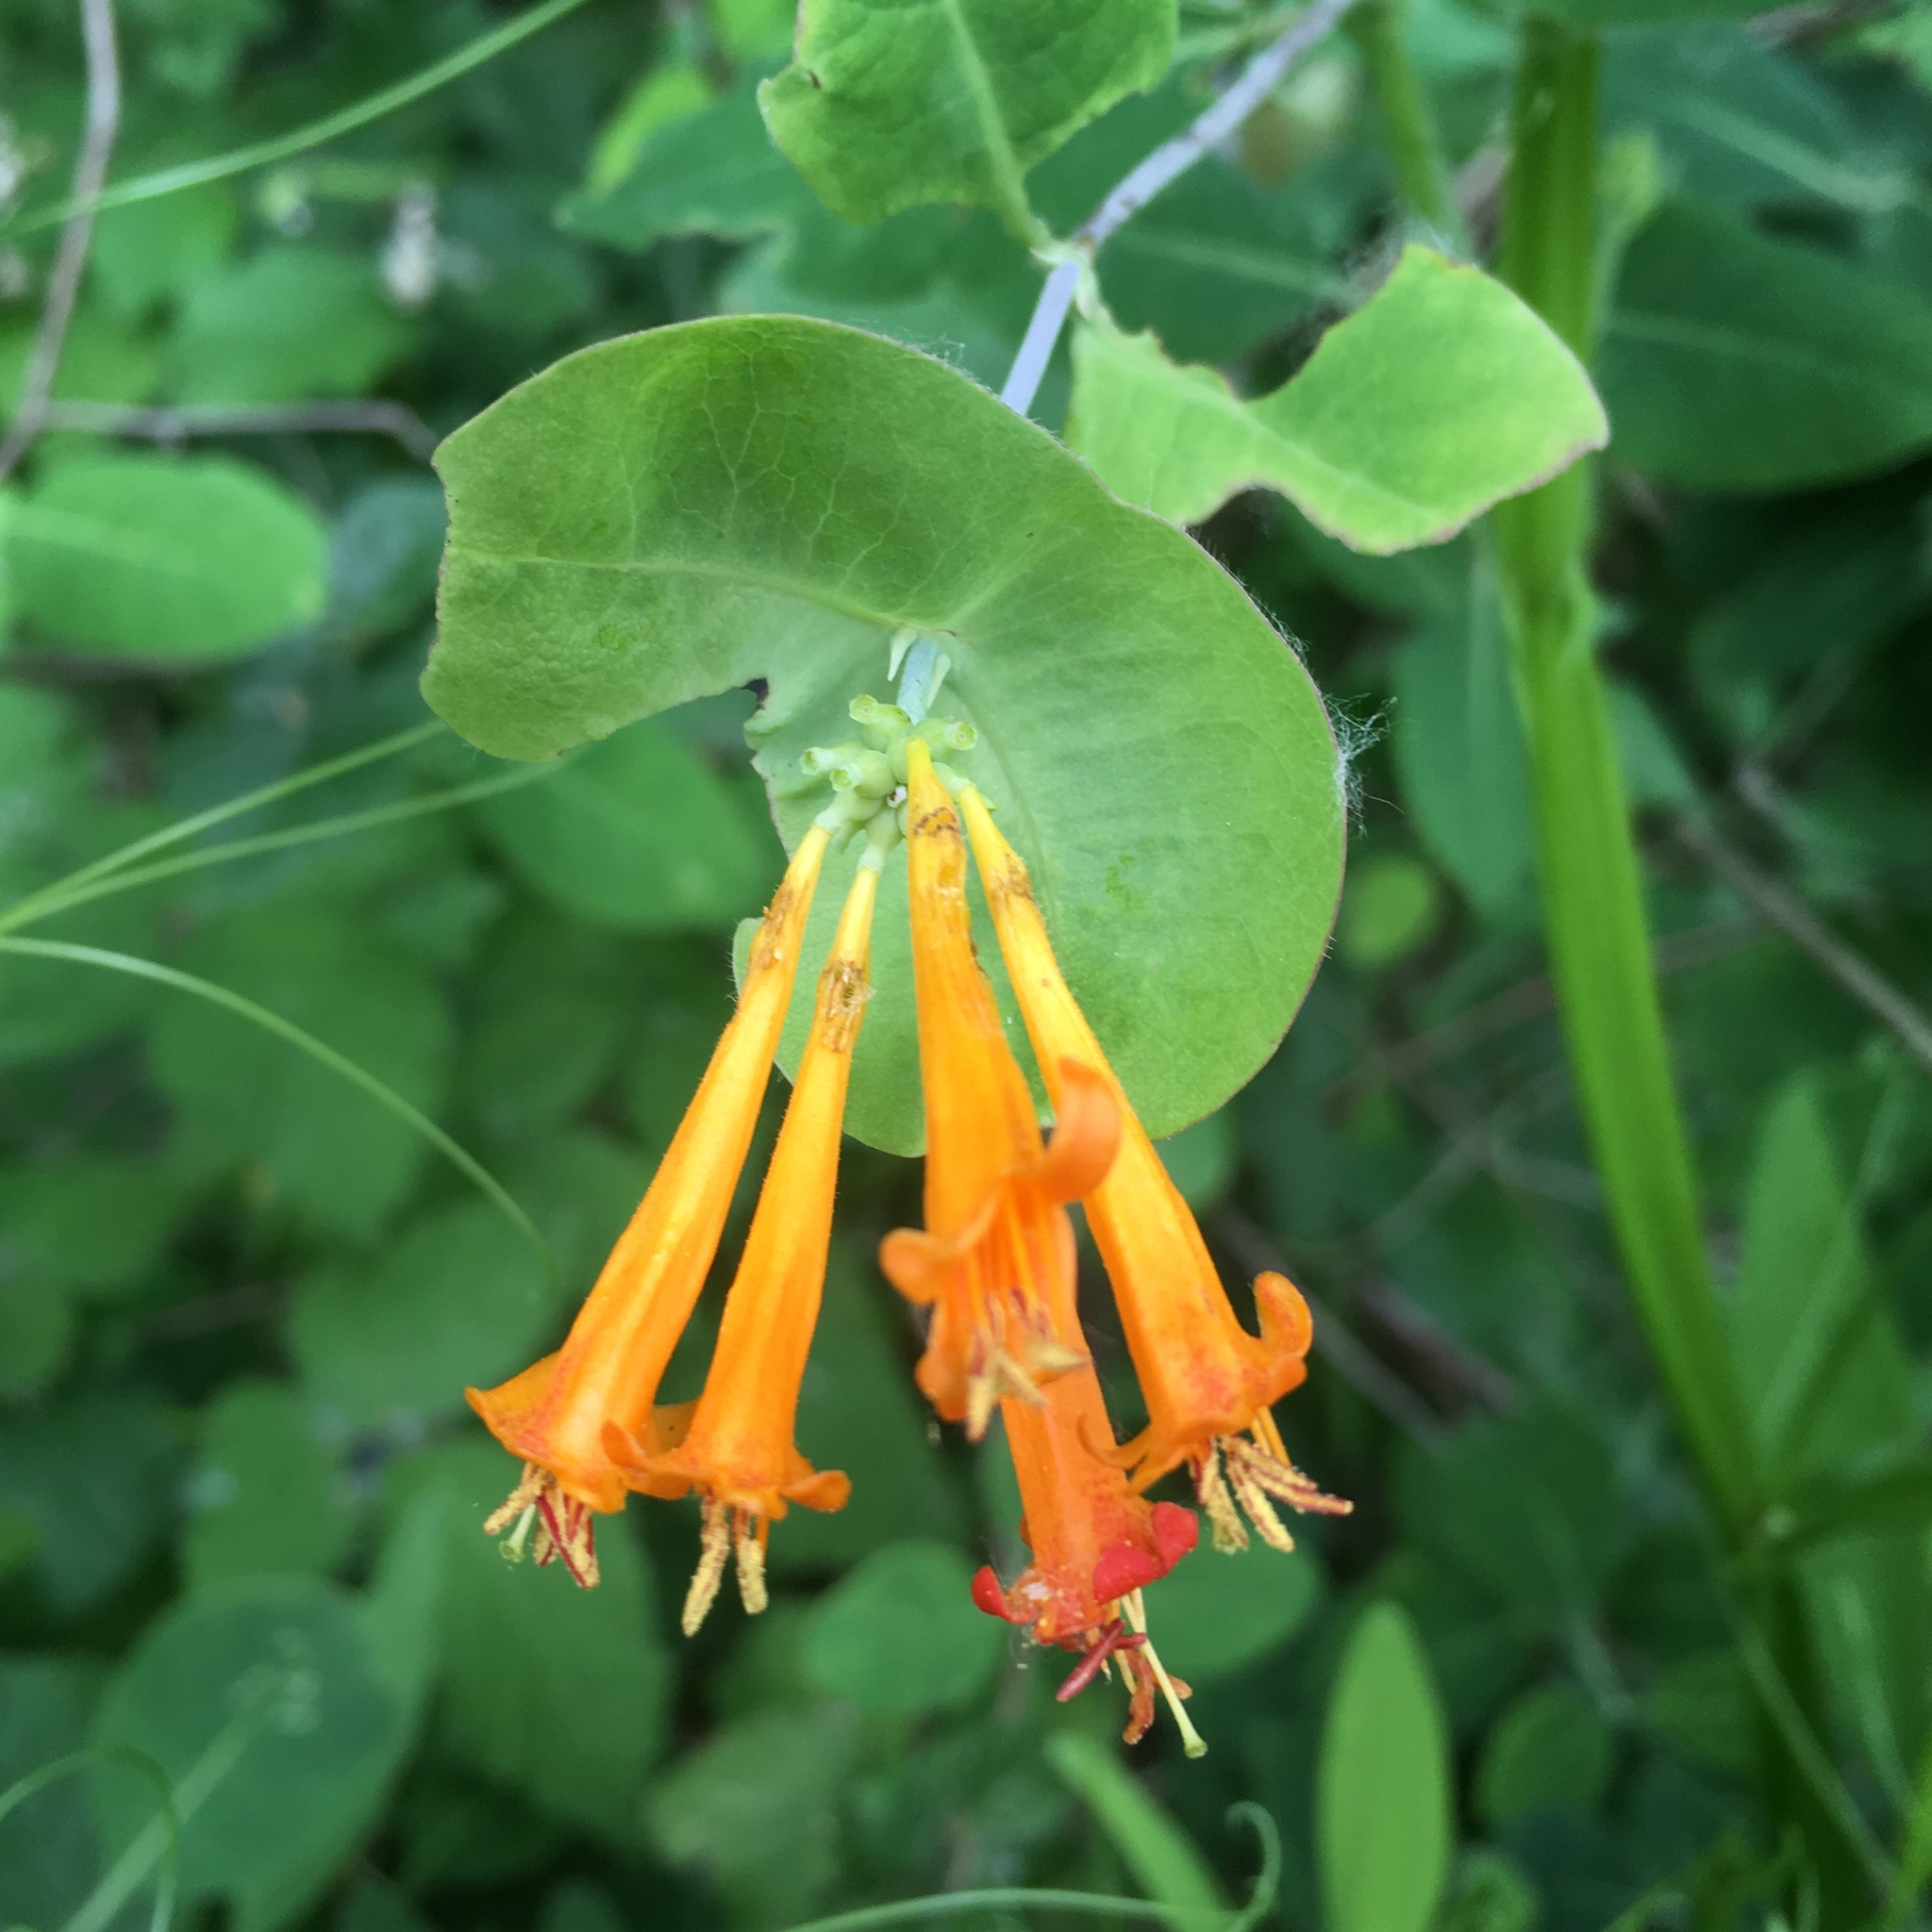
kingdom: Plantae
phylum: Tracheophyta
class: Magnoliopsida
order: Dipsacales
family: Caprifoliaceae
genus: Lonicera
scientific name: Lonicera ciliosa
